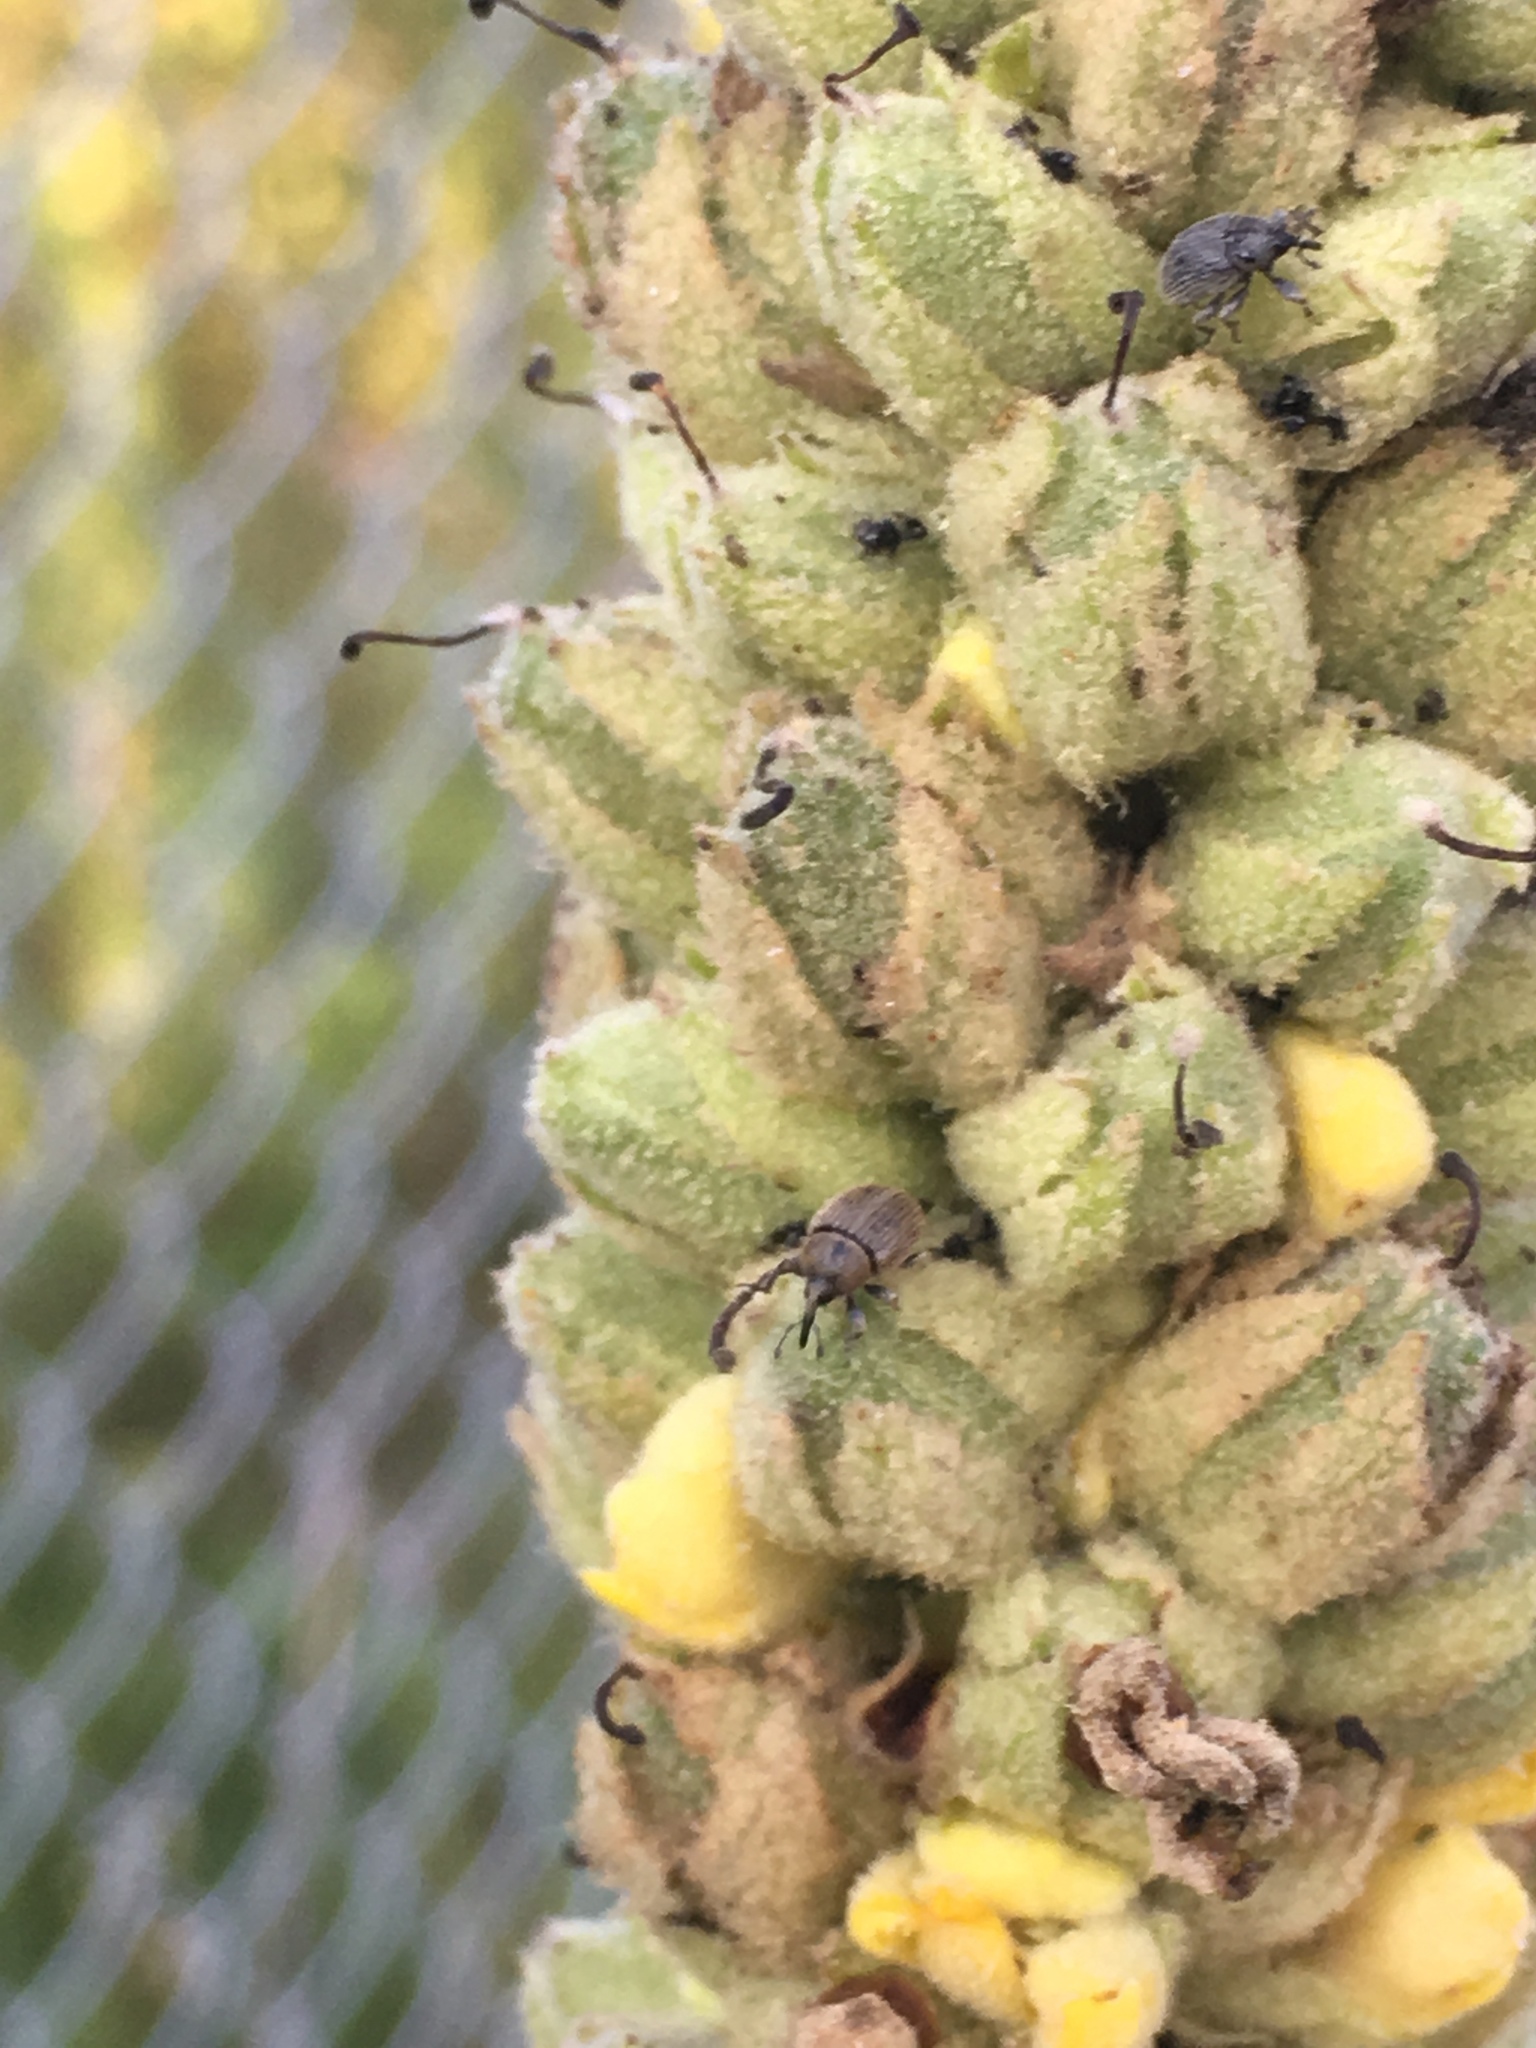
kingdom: Animalia
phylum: Arthropoda
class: Insecta
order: Coleoptera
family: Curculionidae
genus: Rhinusa
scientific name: Rhinusa tetra
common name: Weevil
